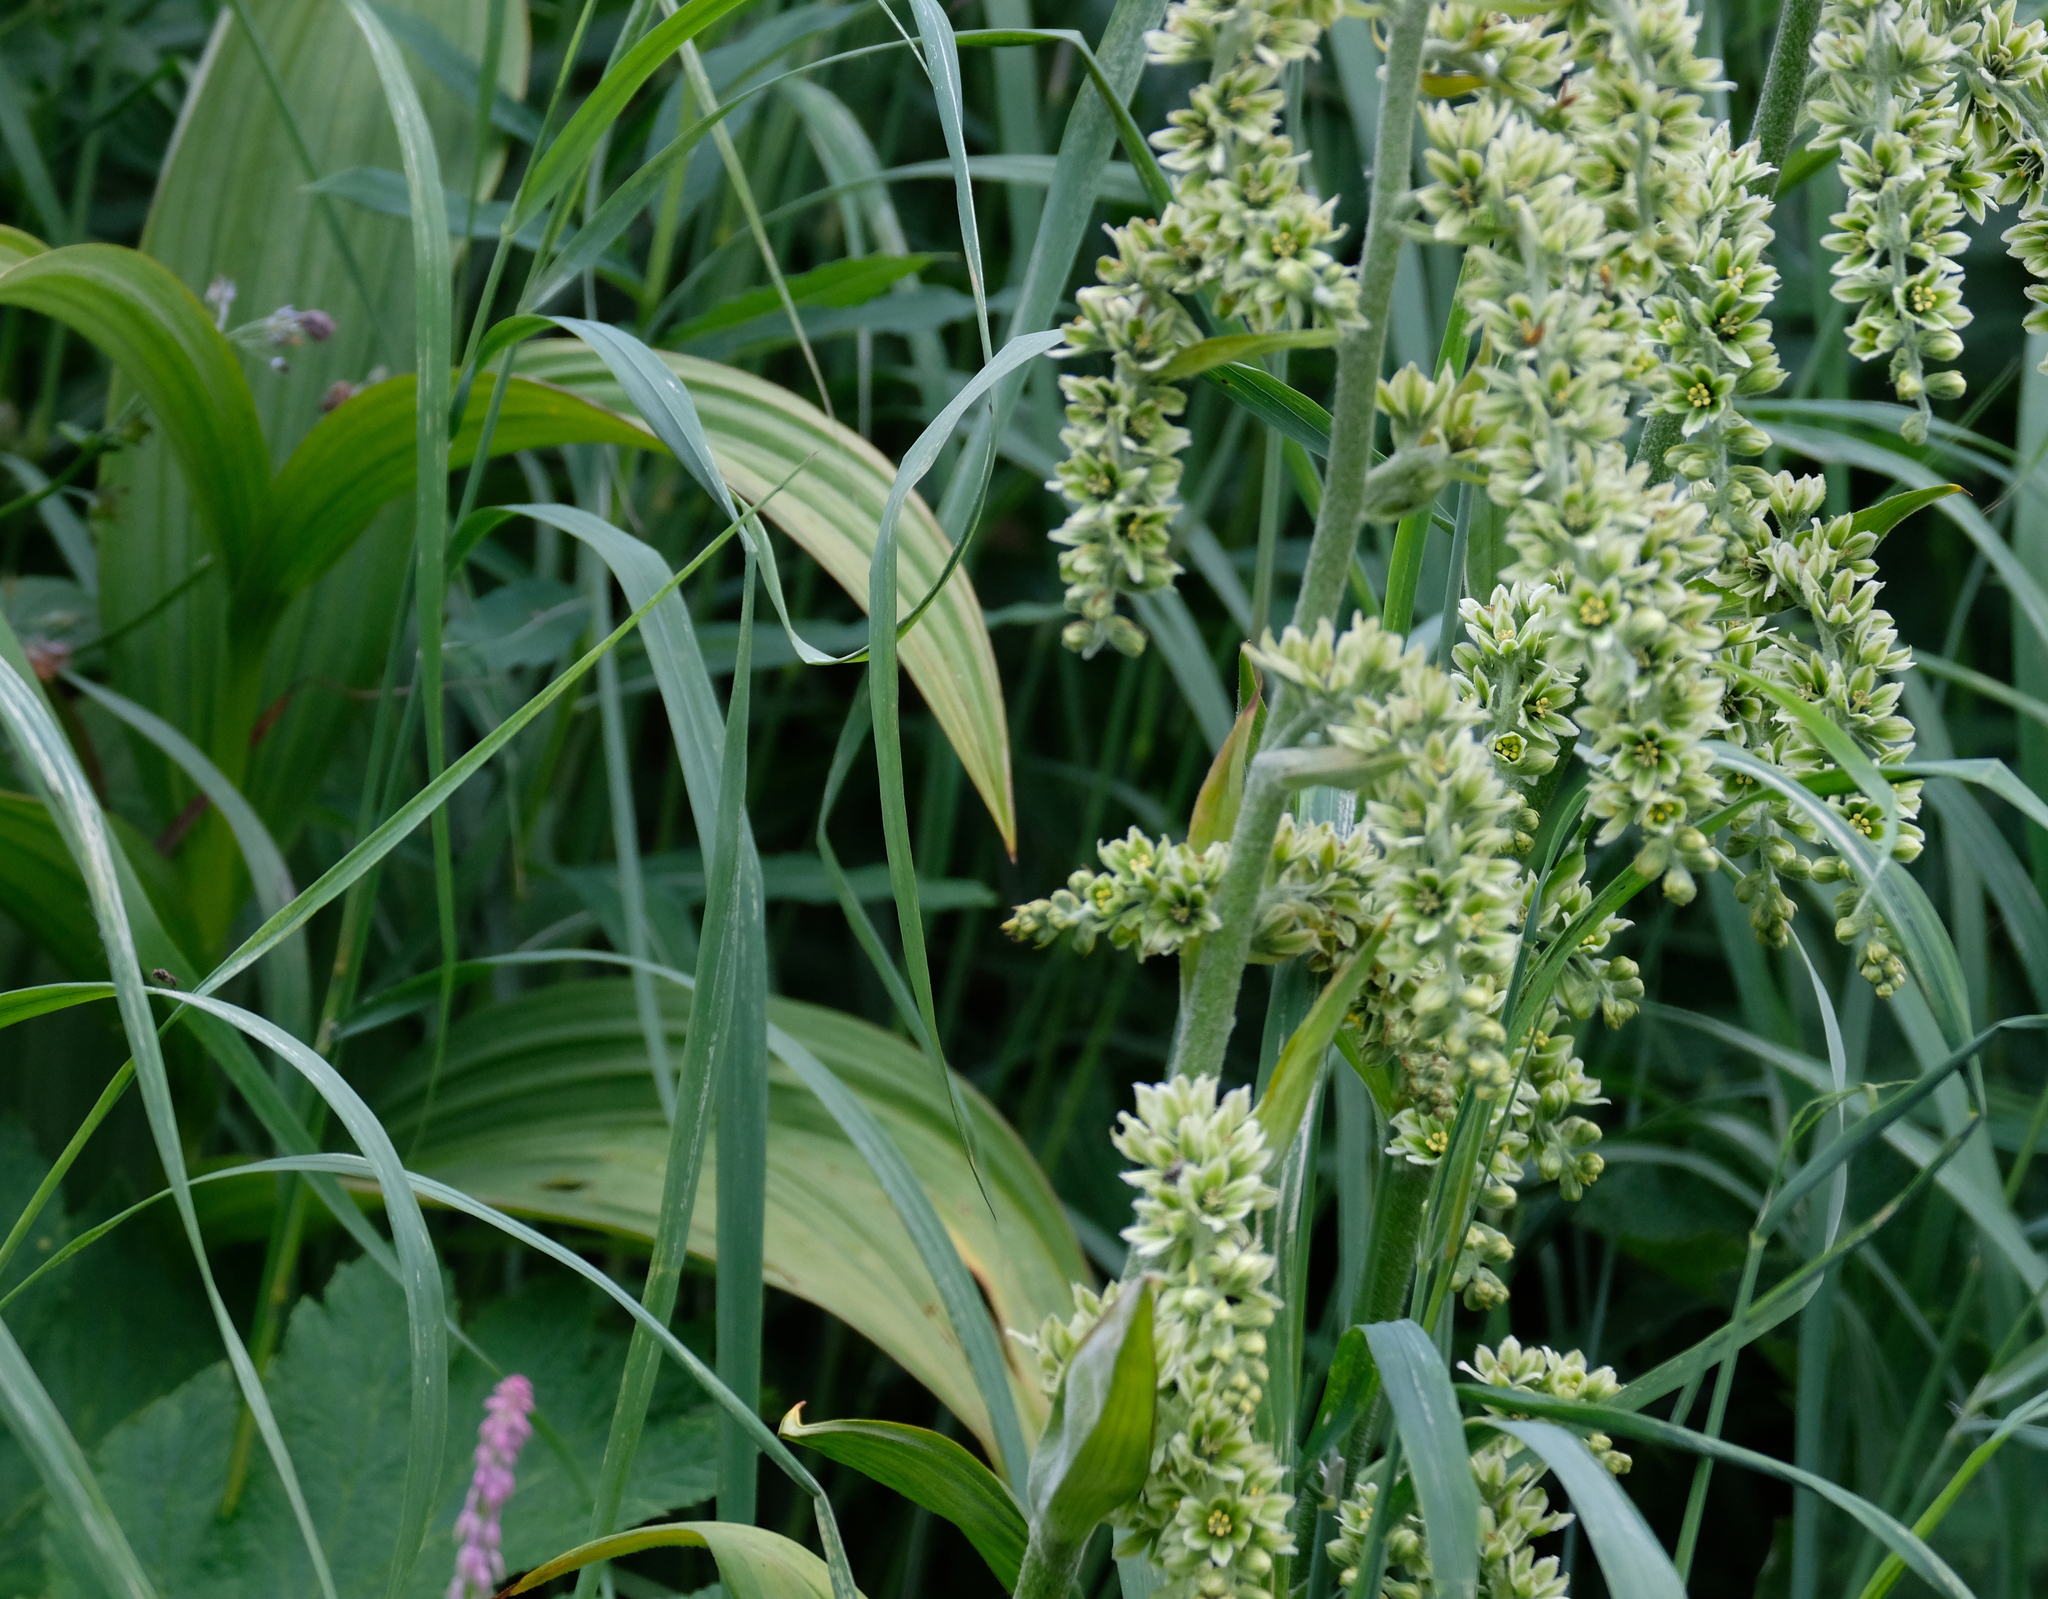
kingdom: Plantae
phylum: Tracheophyta
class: Liliopsida
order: Liliales
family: Melanthiaceae
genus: Veratrum
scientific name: Veratrum viride
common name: American false hellebore
